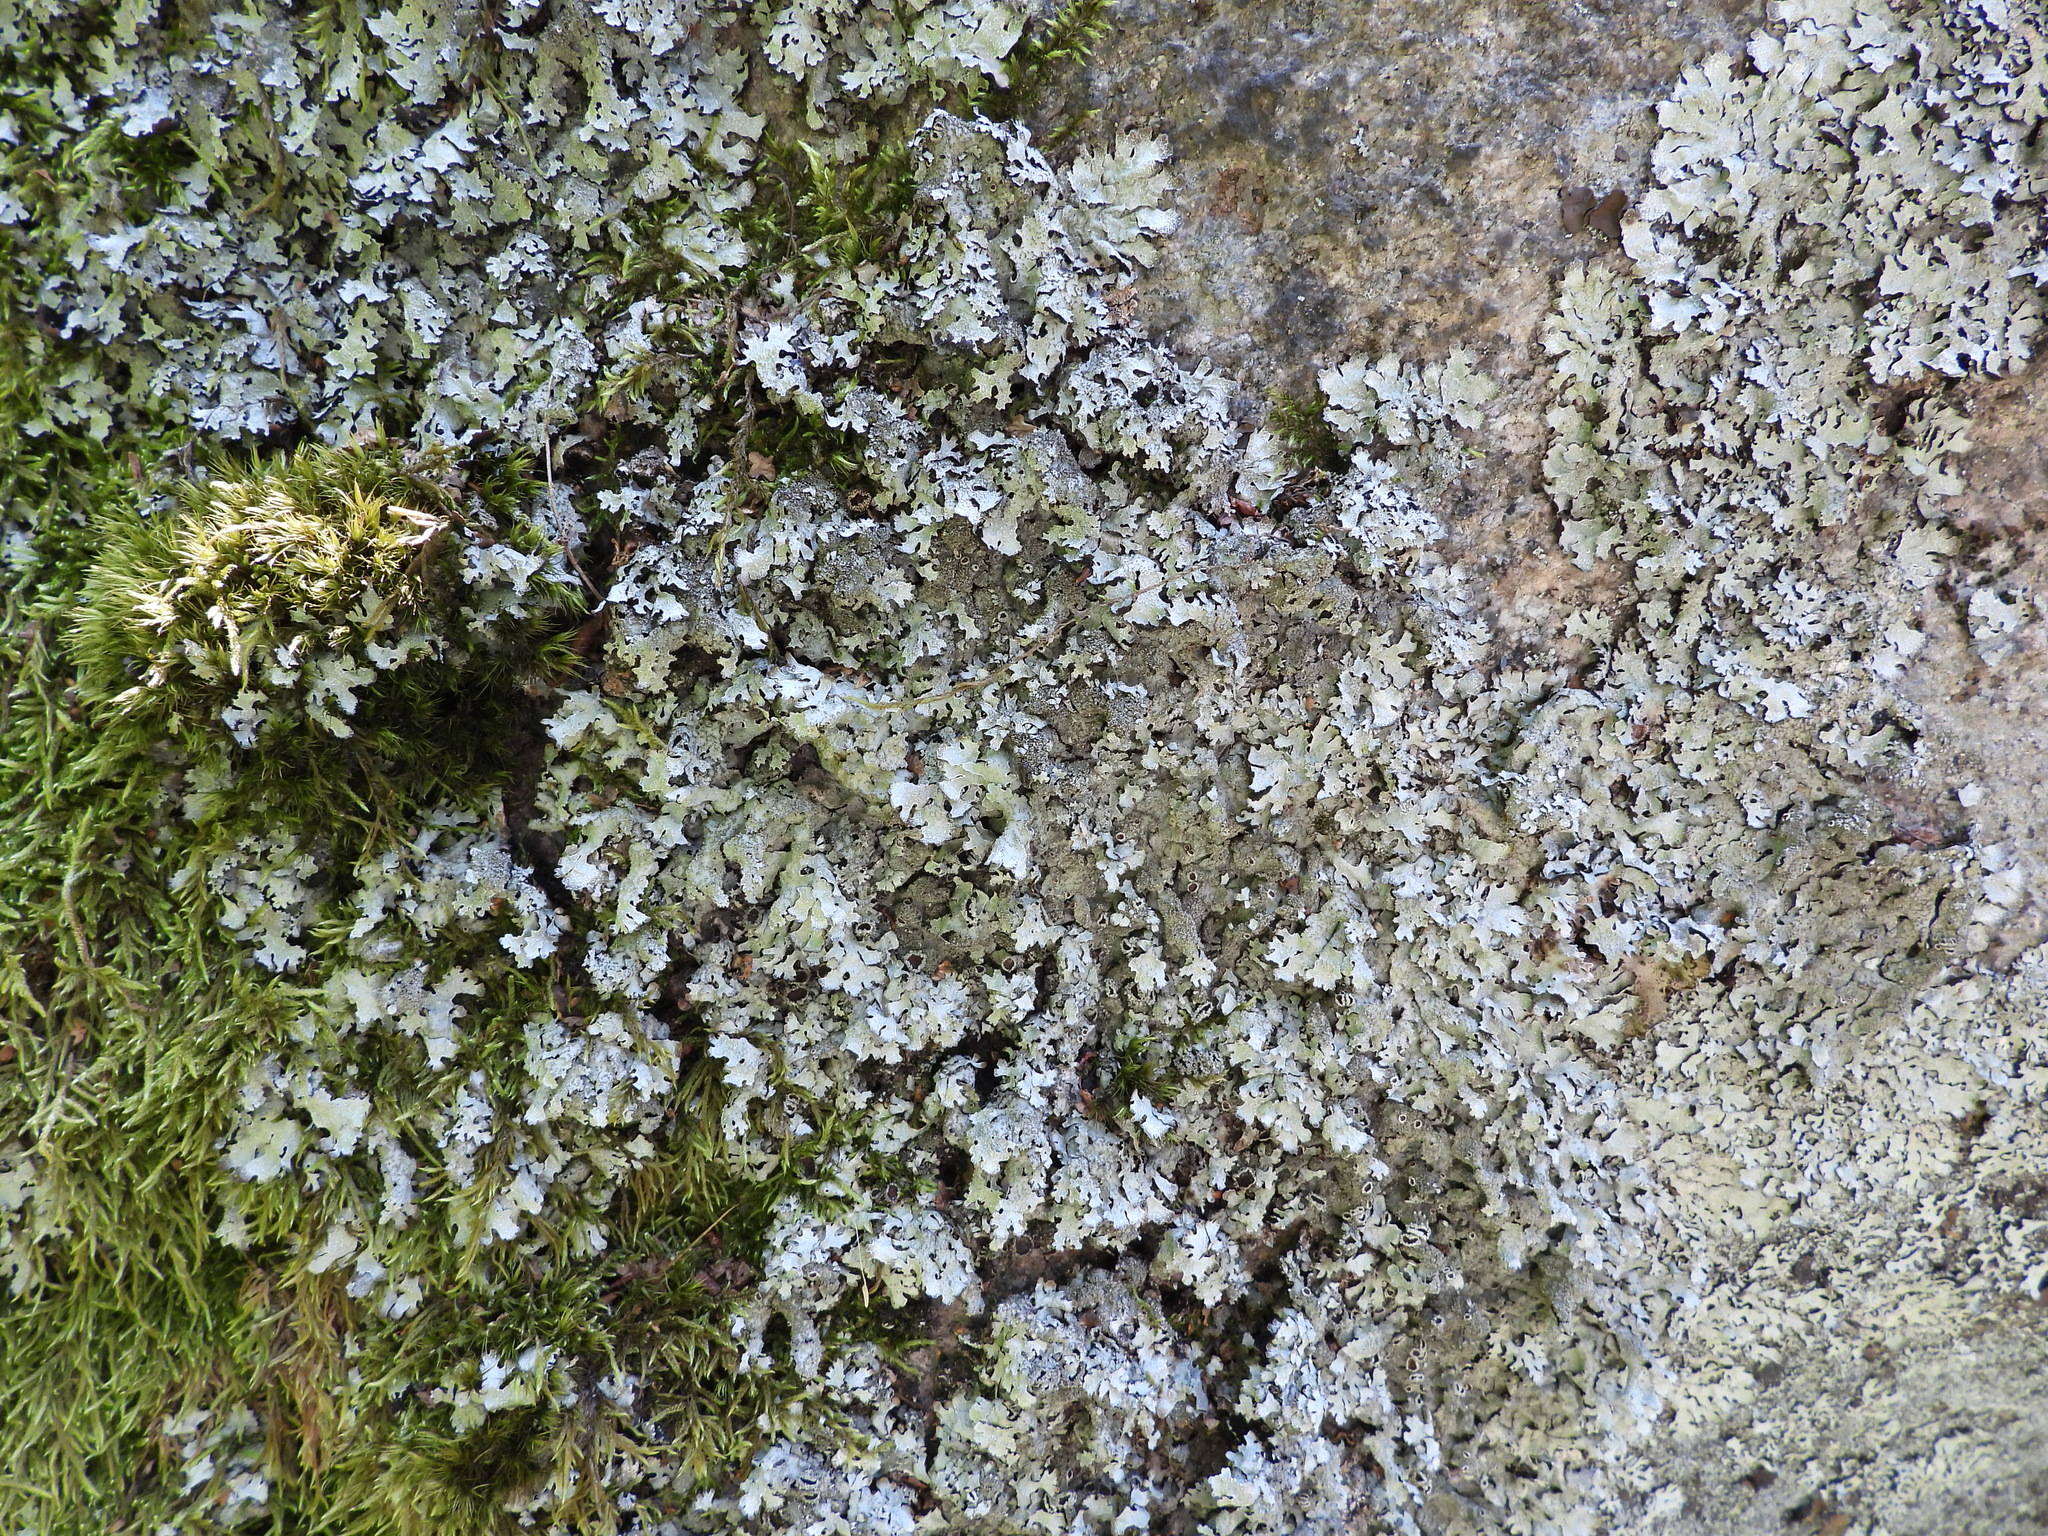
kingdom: Fungi
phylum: Ascomycota
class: Lecanoromycetes
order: Lecanorales
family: Parmeliaceae
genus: Parmelia
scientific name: Parmelia saxatilis
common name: Salted shield lichen
